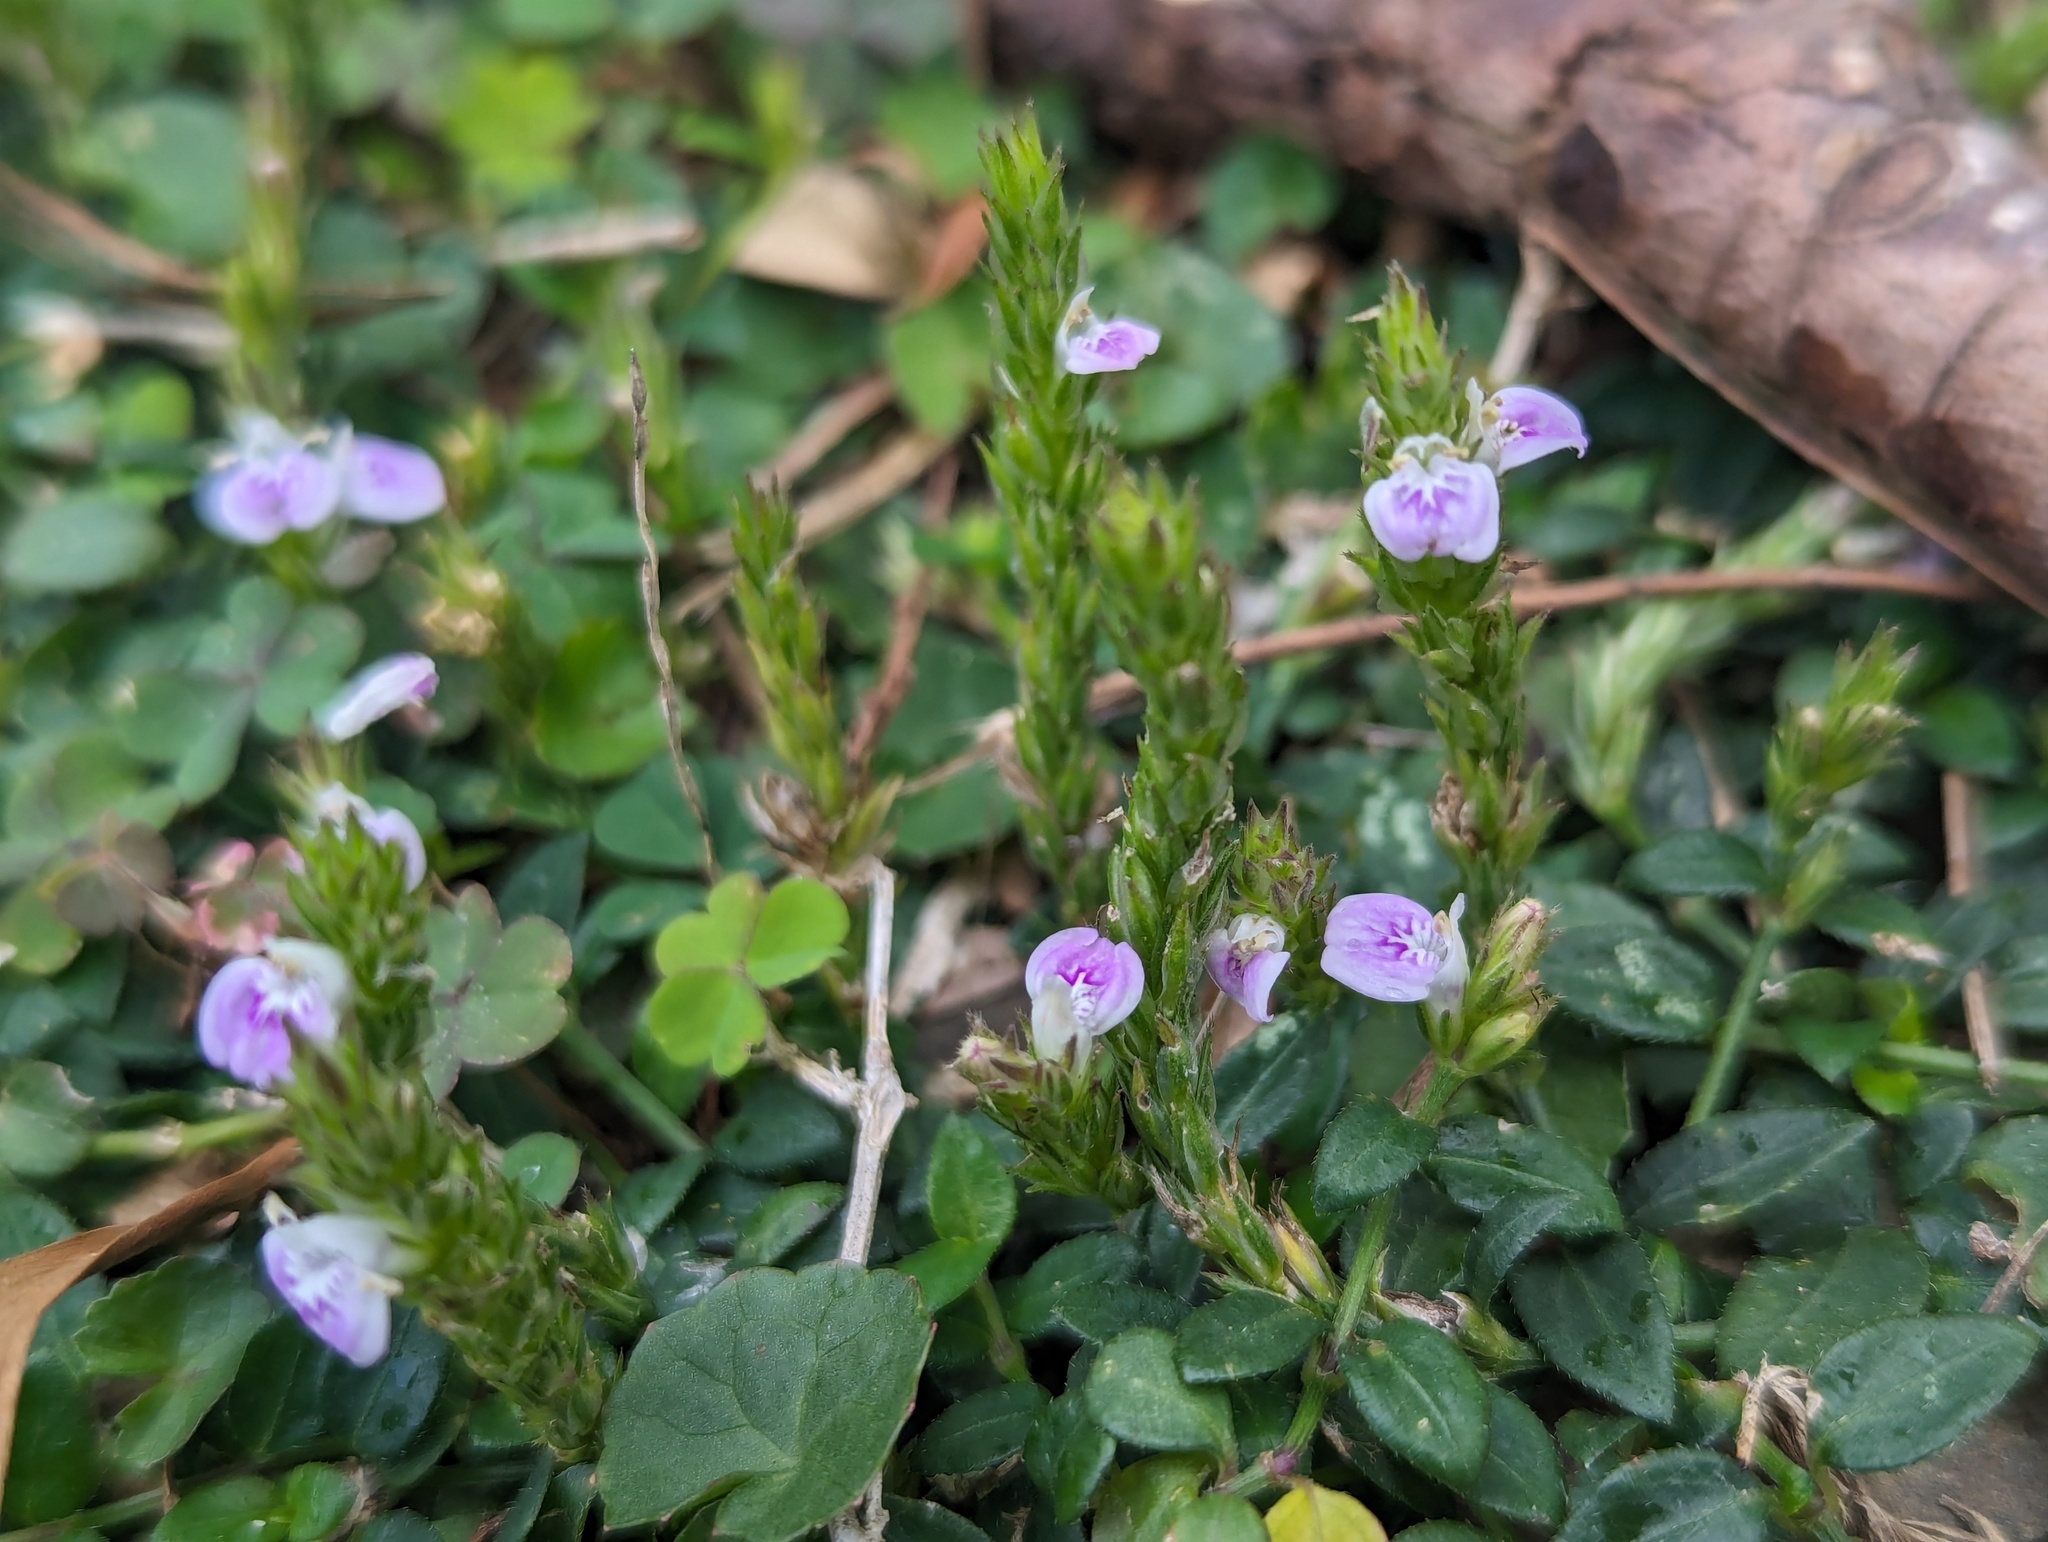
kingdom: Plantae
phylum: Tracheophyta
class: Magnoliopsida
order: Lamiales
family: Acanthaceae
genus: Rostellularia
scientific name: Rostellularia hayatae
